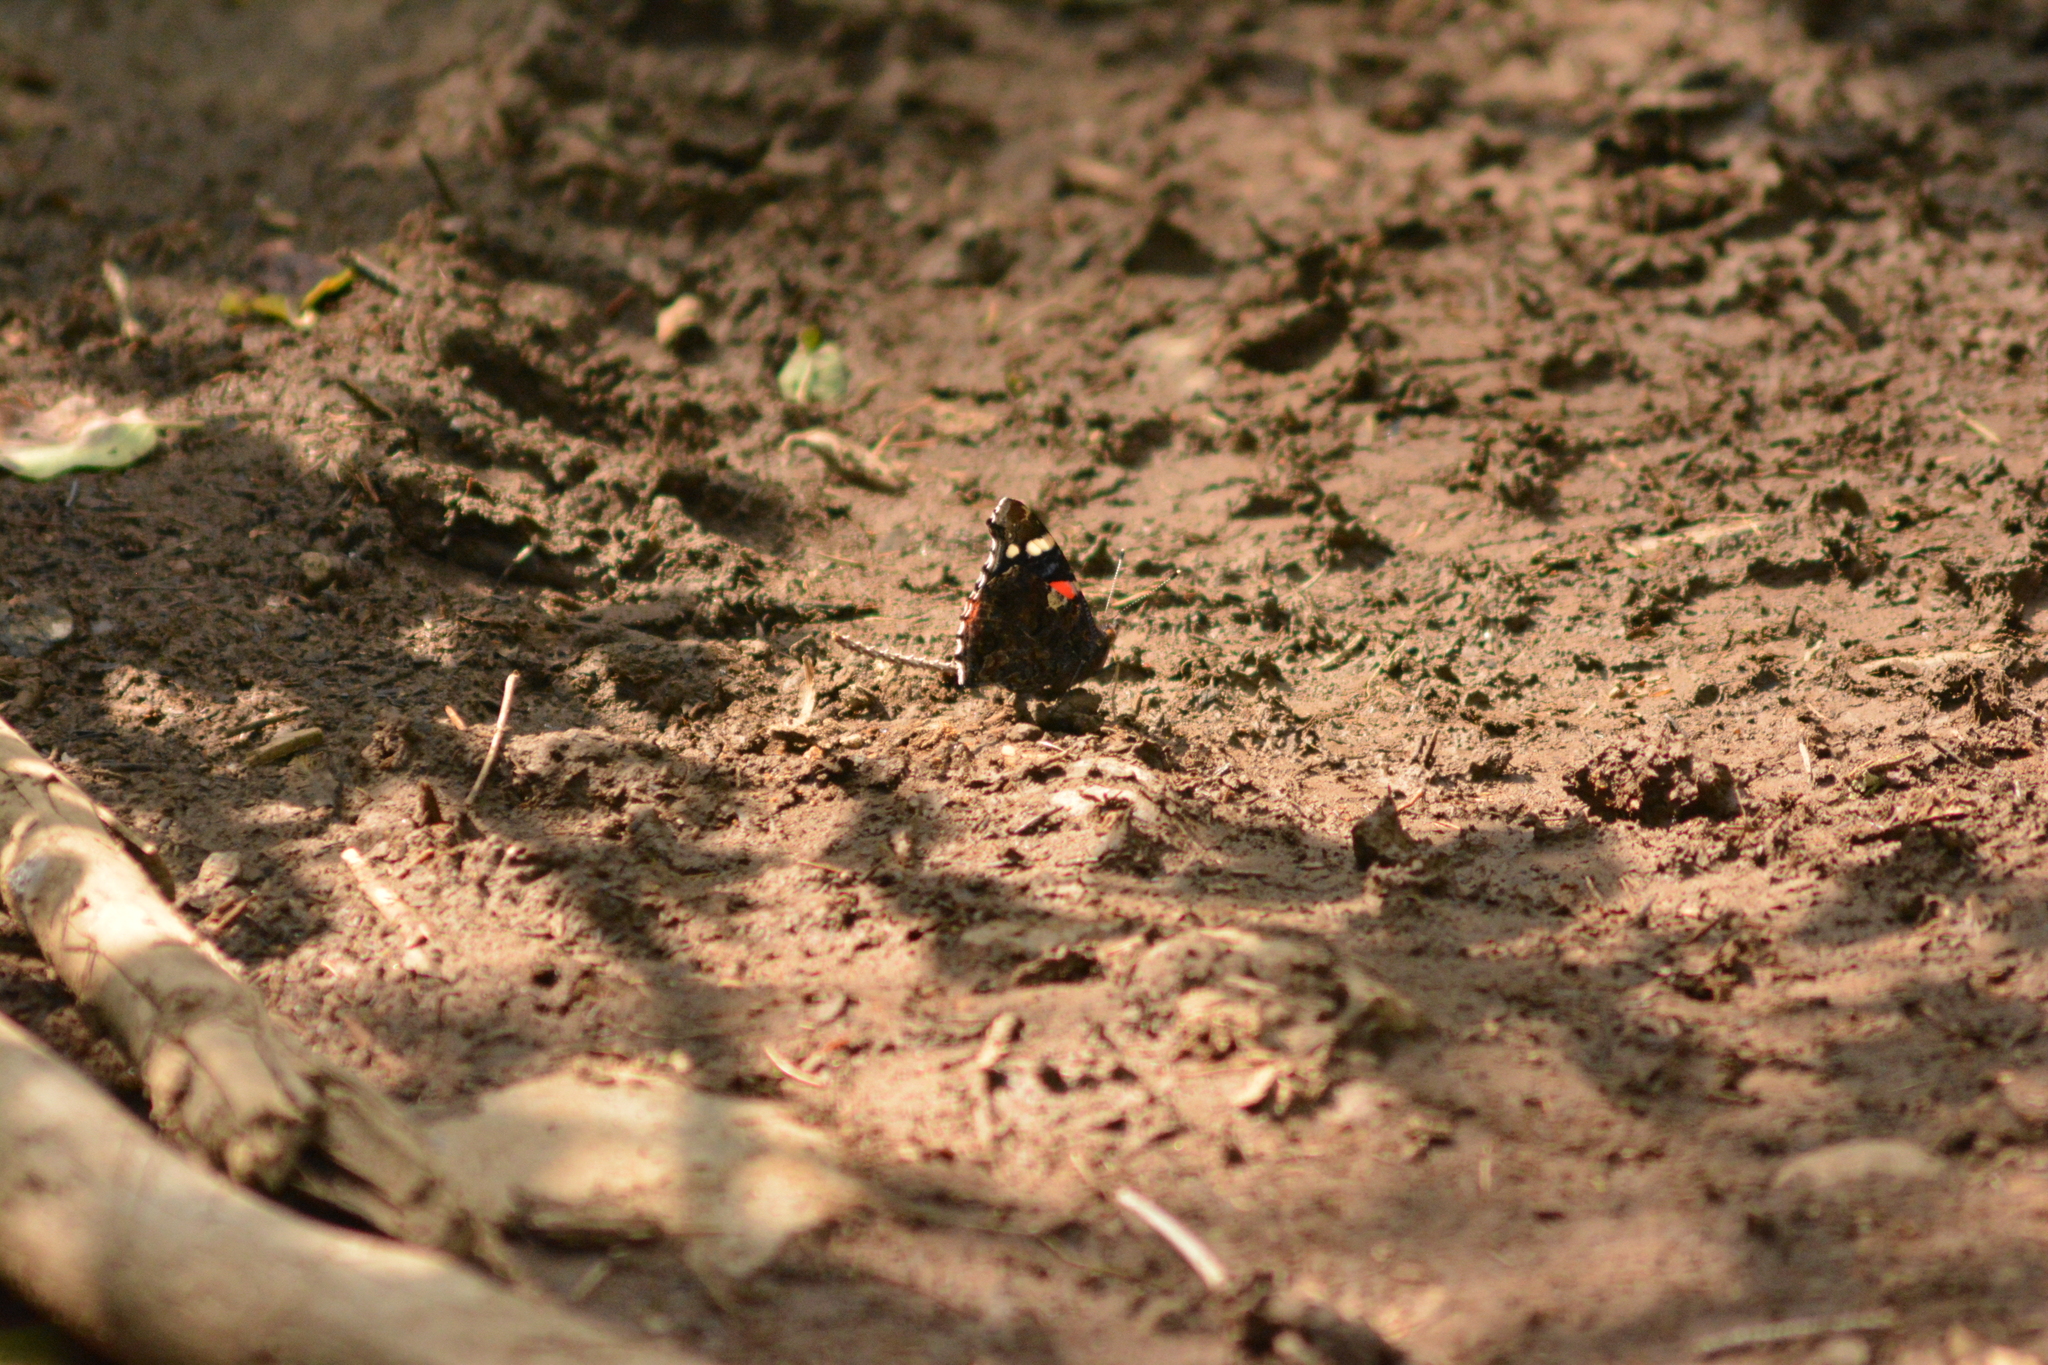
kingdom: Animalia
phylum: Arthropoda
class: Insecta
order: Lepidoptera
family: Nymphalidae
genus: Vanessa
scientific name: Vanessa atalanta
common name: Red admiral
